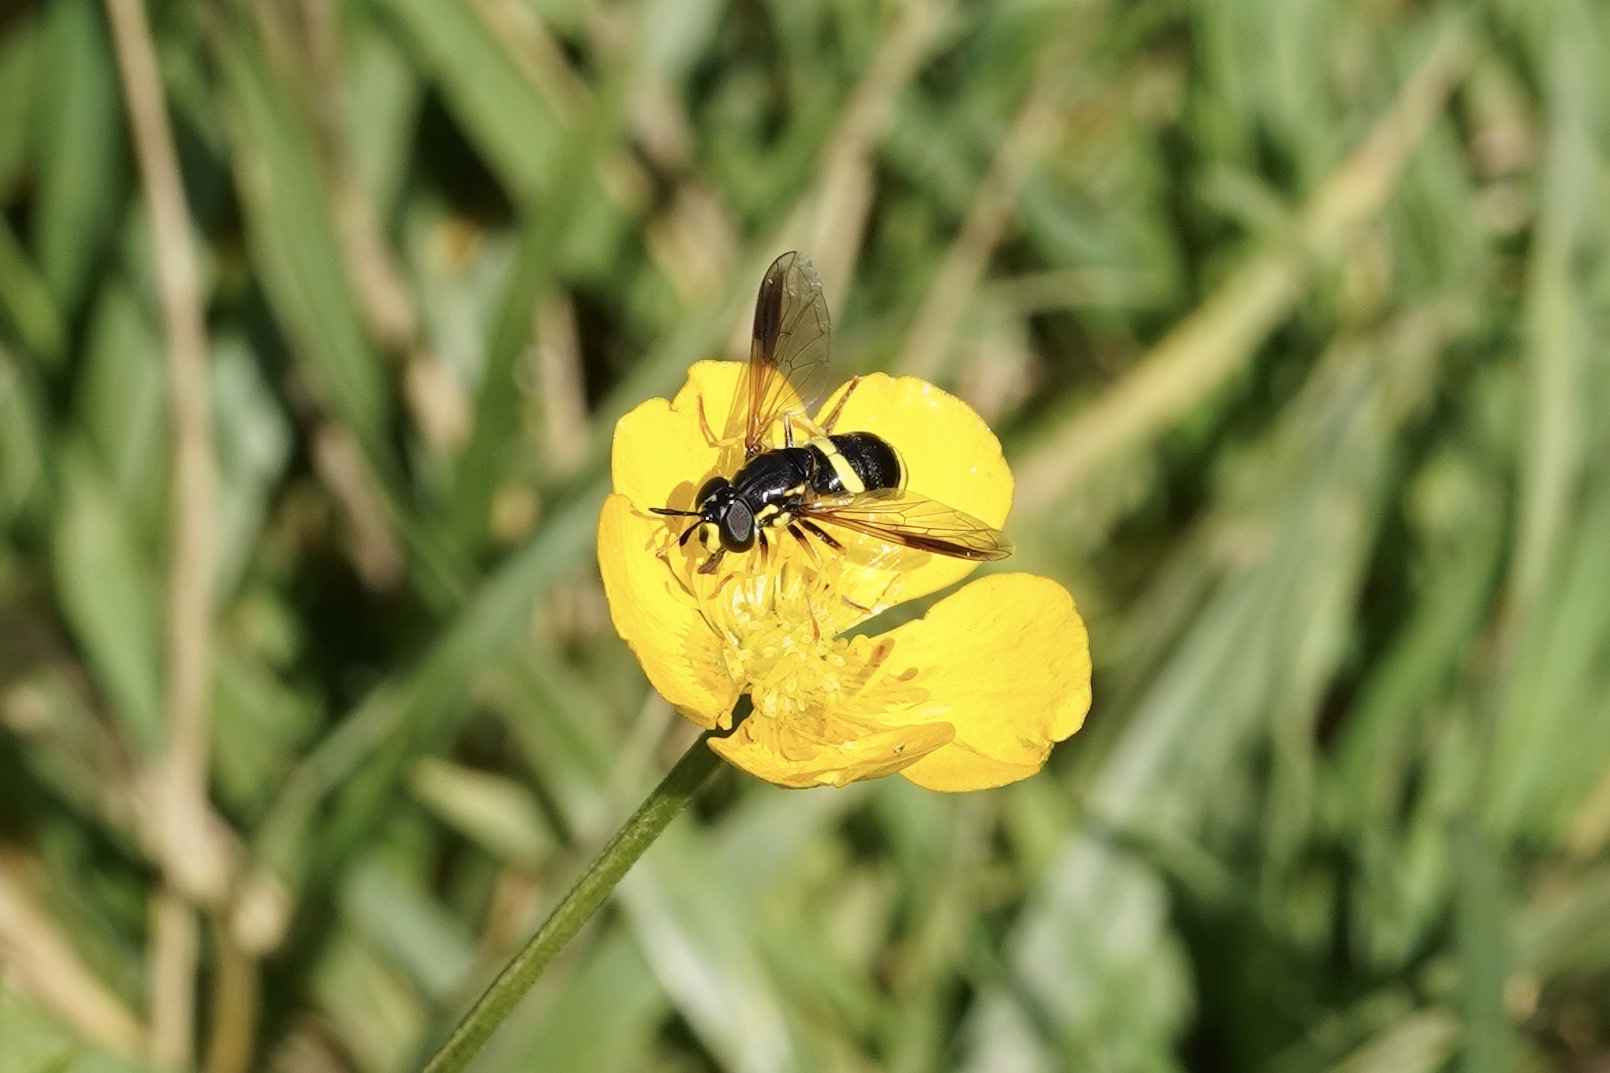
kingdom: Animalia
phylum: Arthropoda
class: Insecta
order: Diptera
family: Syrphidae
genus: Chrysotoxum
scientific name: Chrysotoxum bicincta
